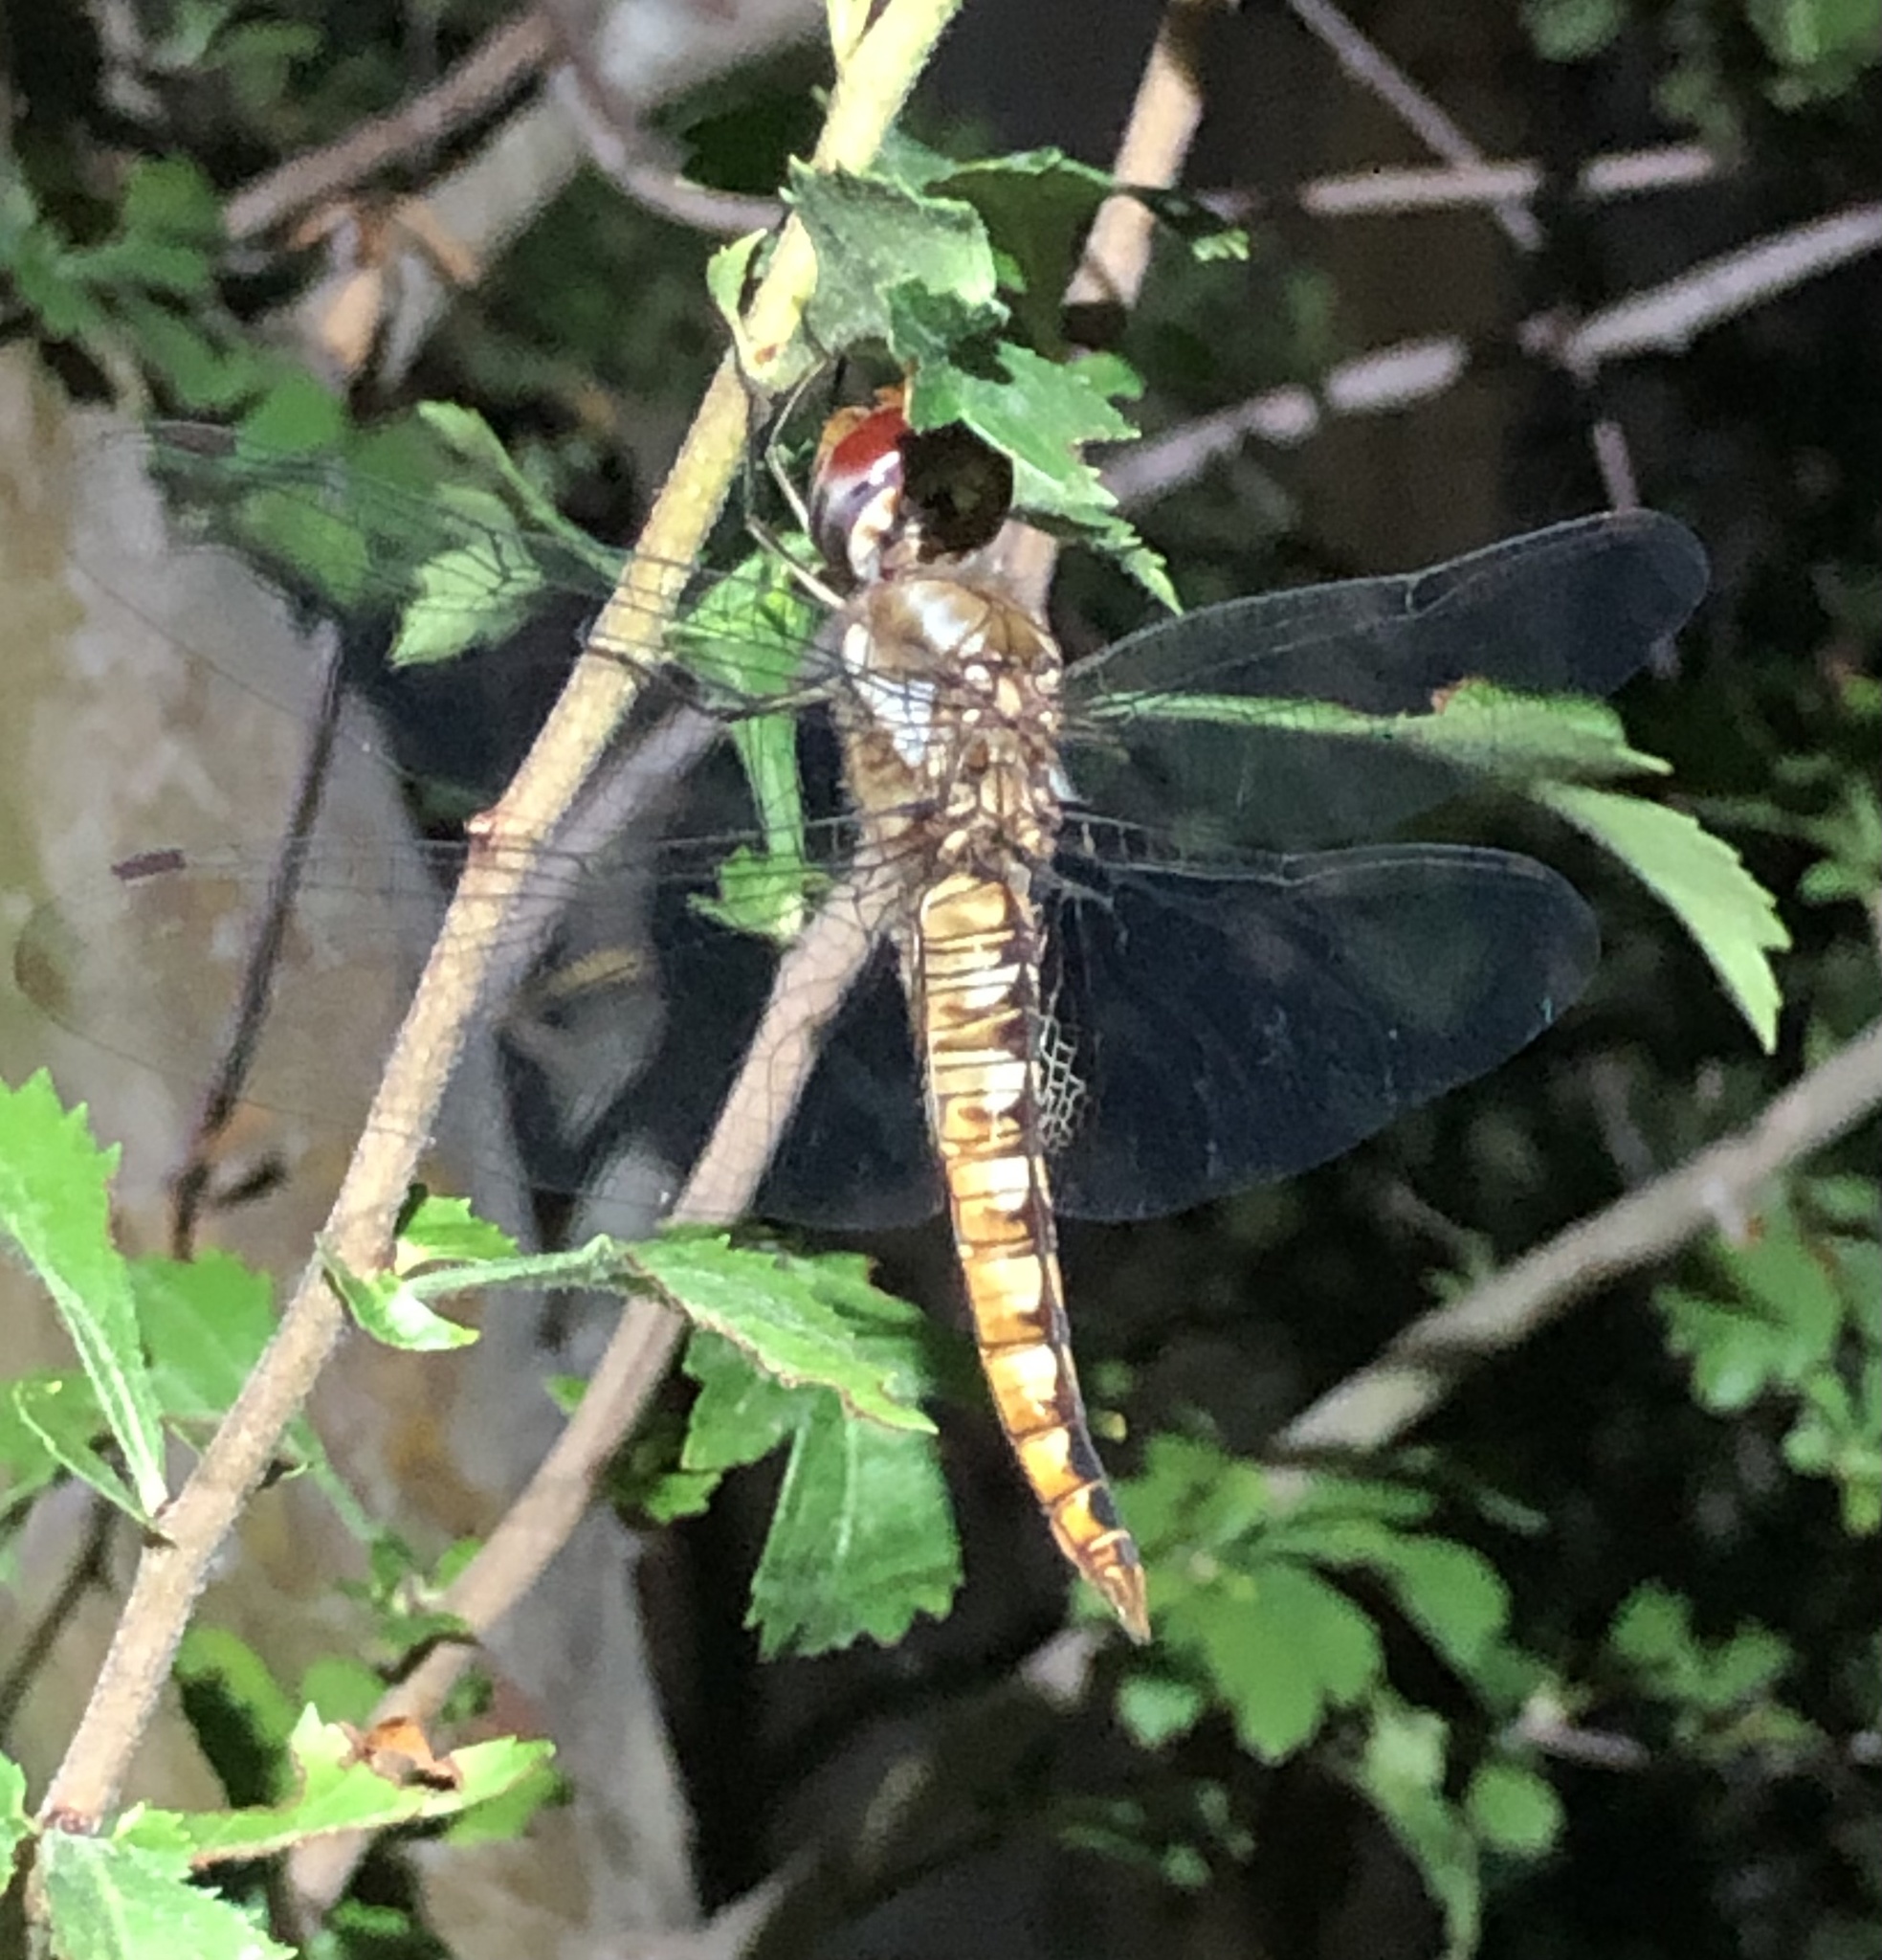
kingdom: Animalia
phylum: Arthropoda
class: Insecta
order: Odonata
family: Libellulidae
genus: Pantala
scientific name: Pantala hymenaea
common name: Spot-winged glider
